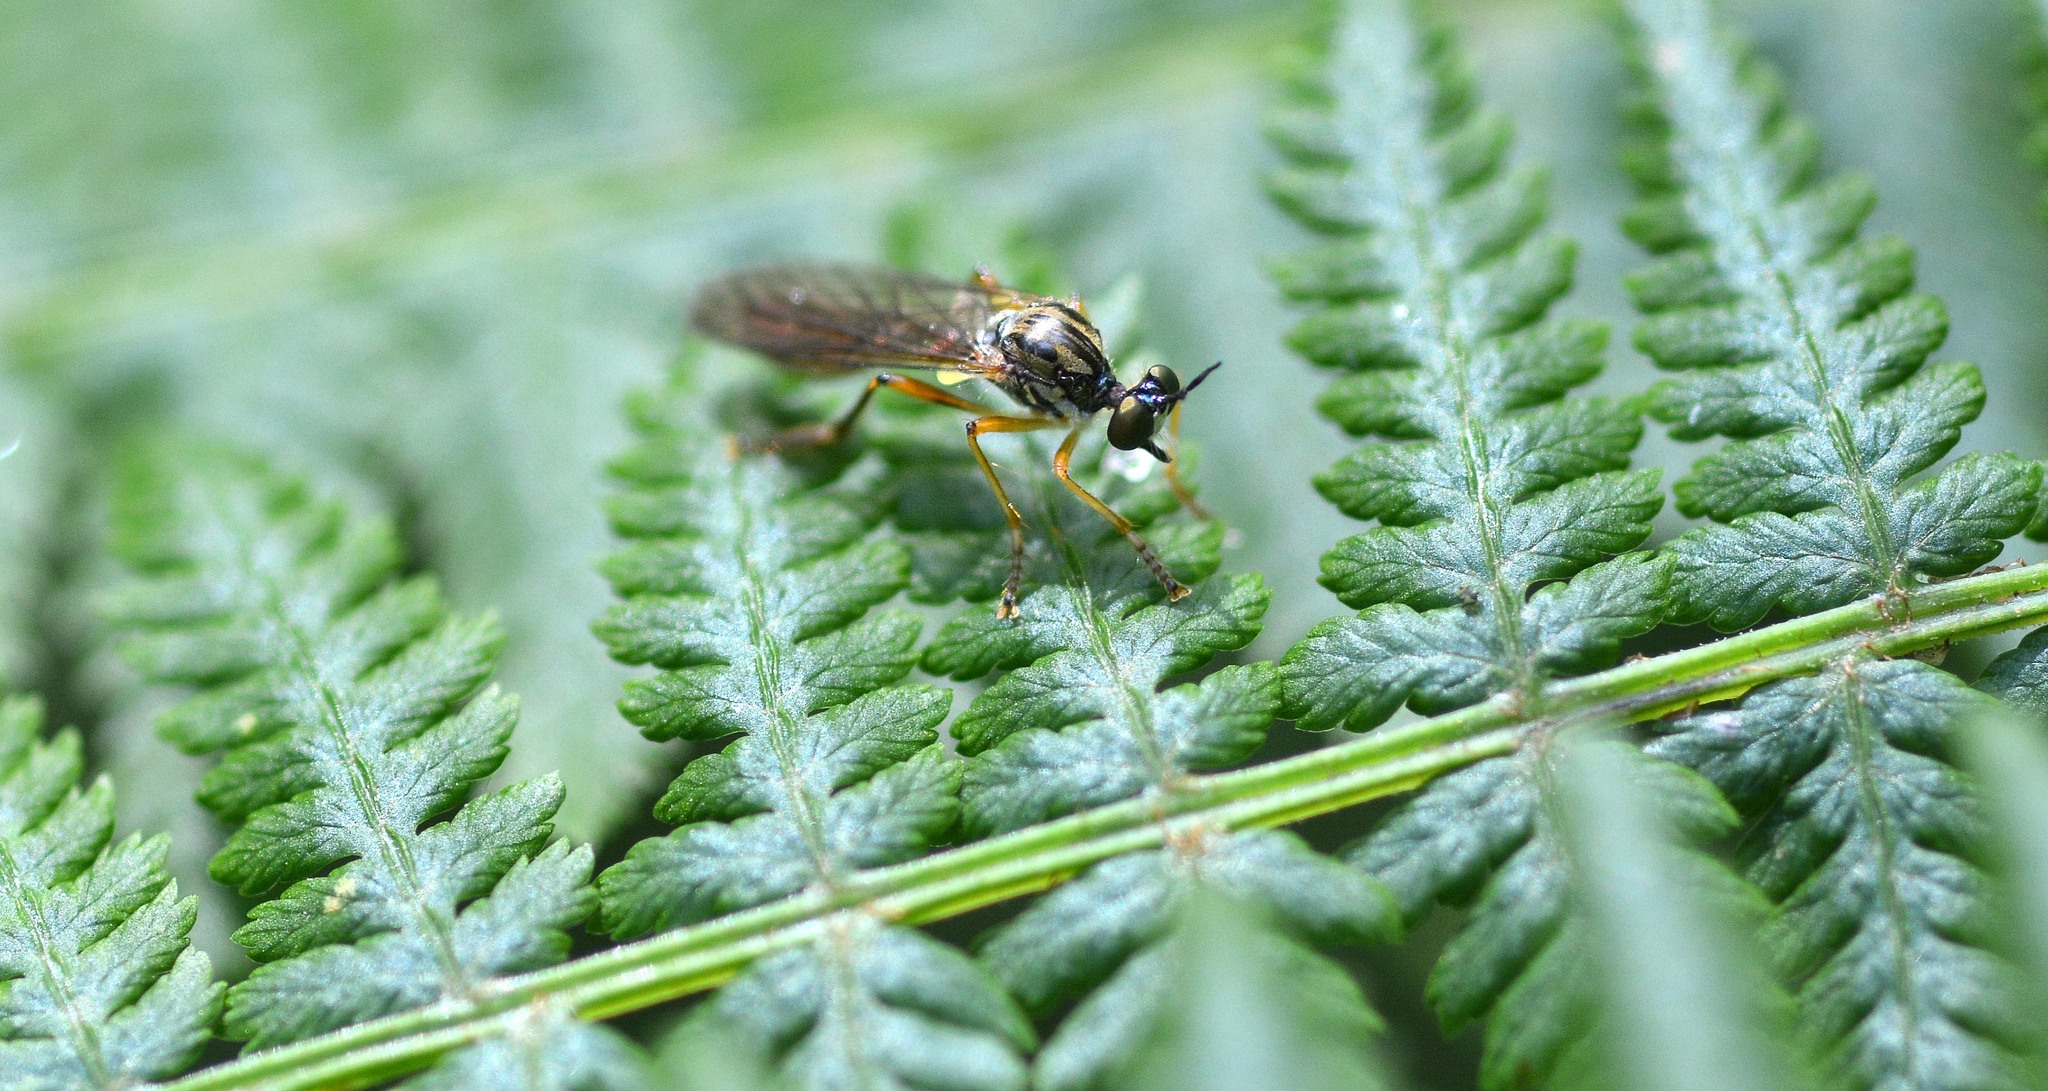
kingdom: Animalia
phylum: Arthropoda
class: Insecta
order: Diptera
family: Asilidae
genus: Dioctria
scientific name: Dioctria linearis
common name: Small yellow-legged robberfly
